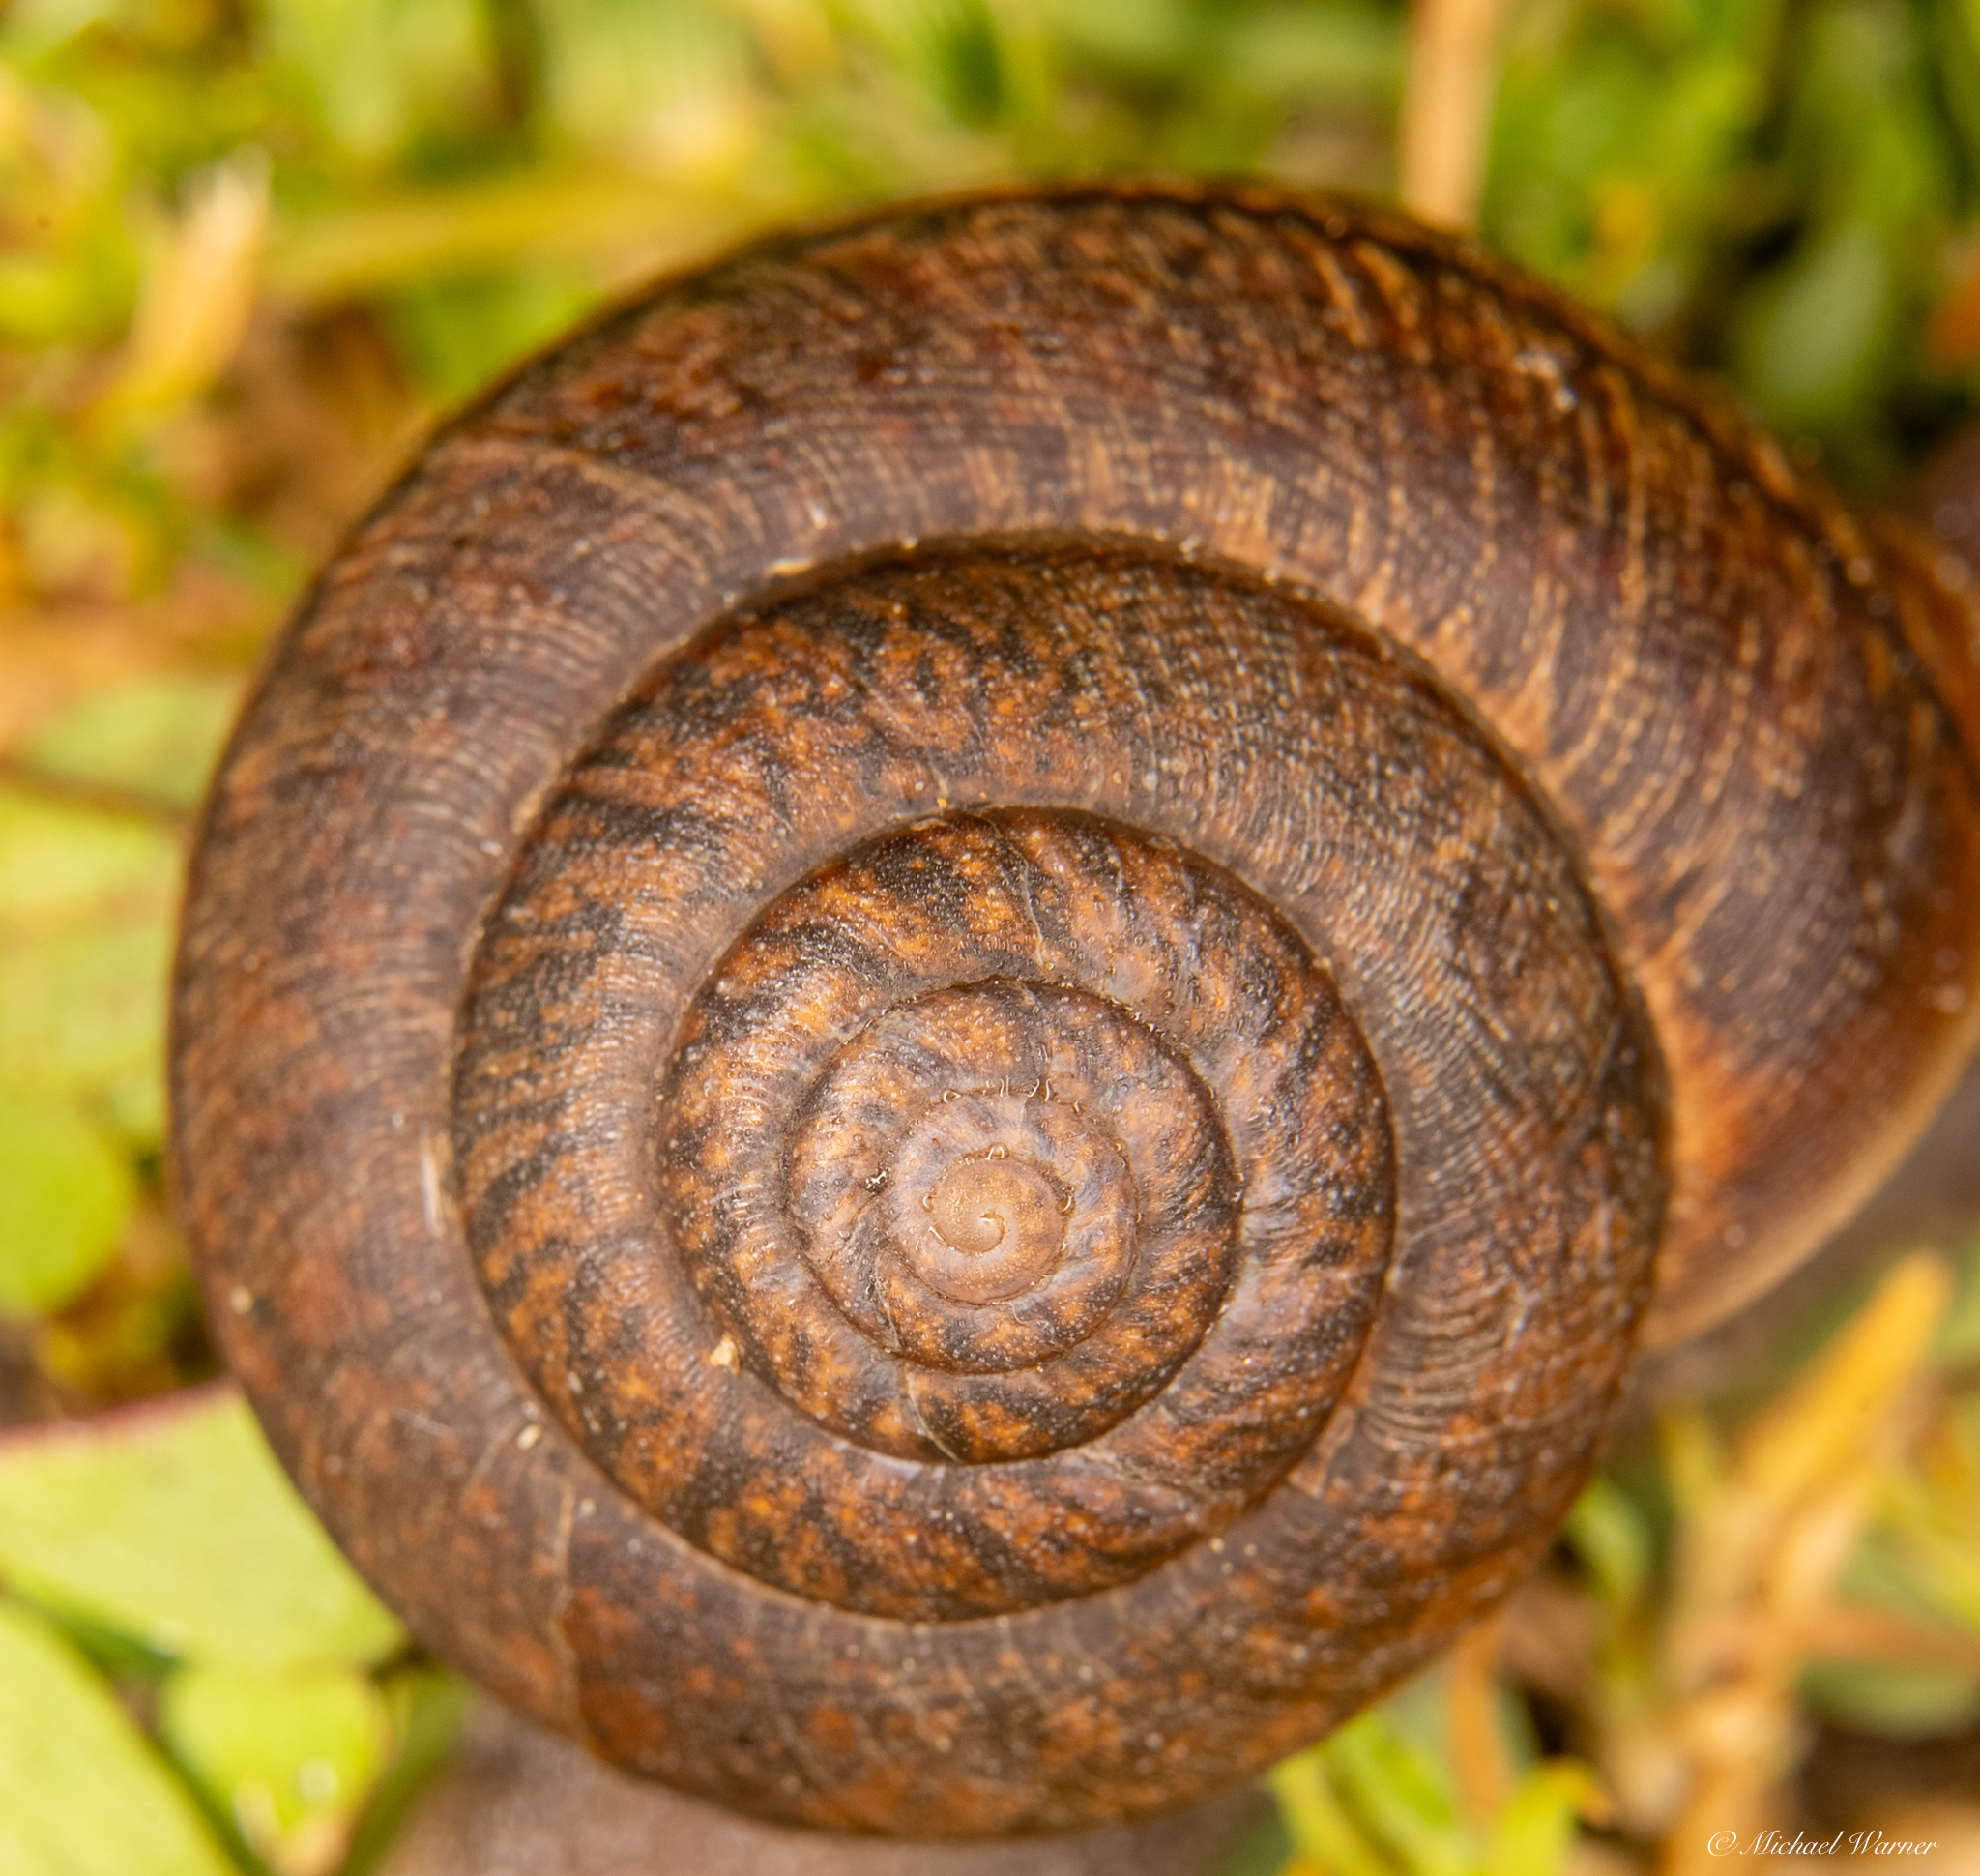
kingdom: Animalia
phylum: Mollusca
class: Gastropoda
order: Stylommatophora
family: Xanthonychidae
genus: Helminthoglypta
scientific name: Helminthoglypta nickliniana
